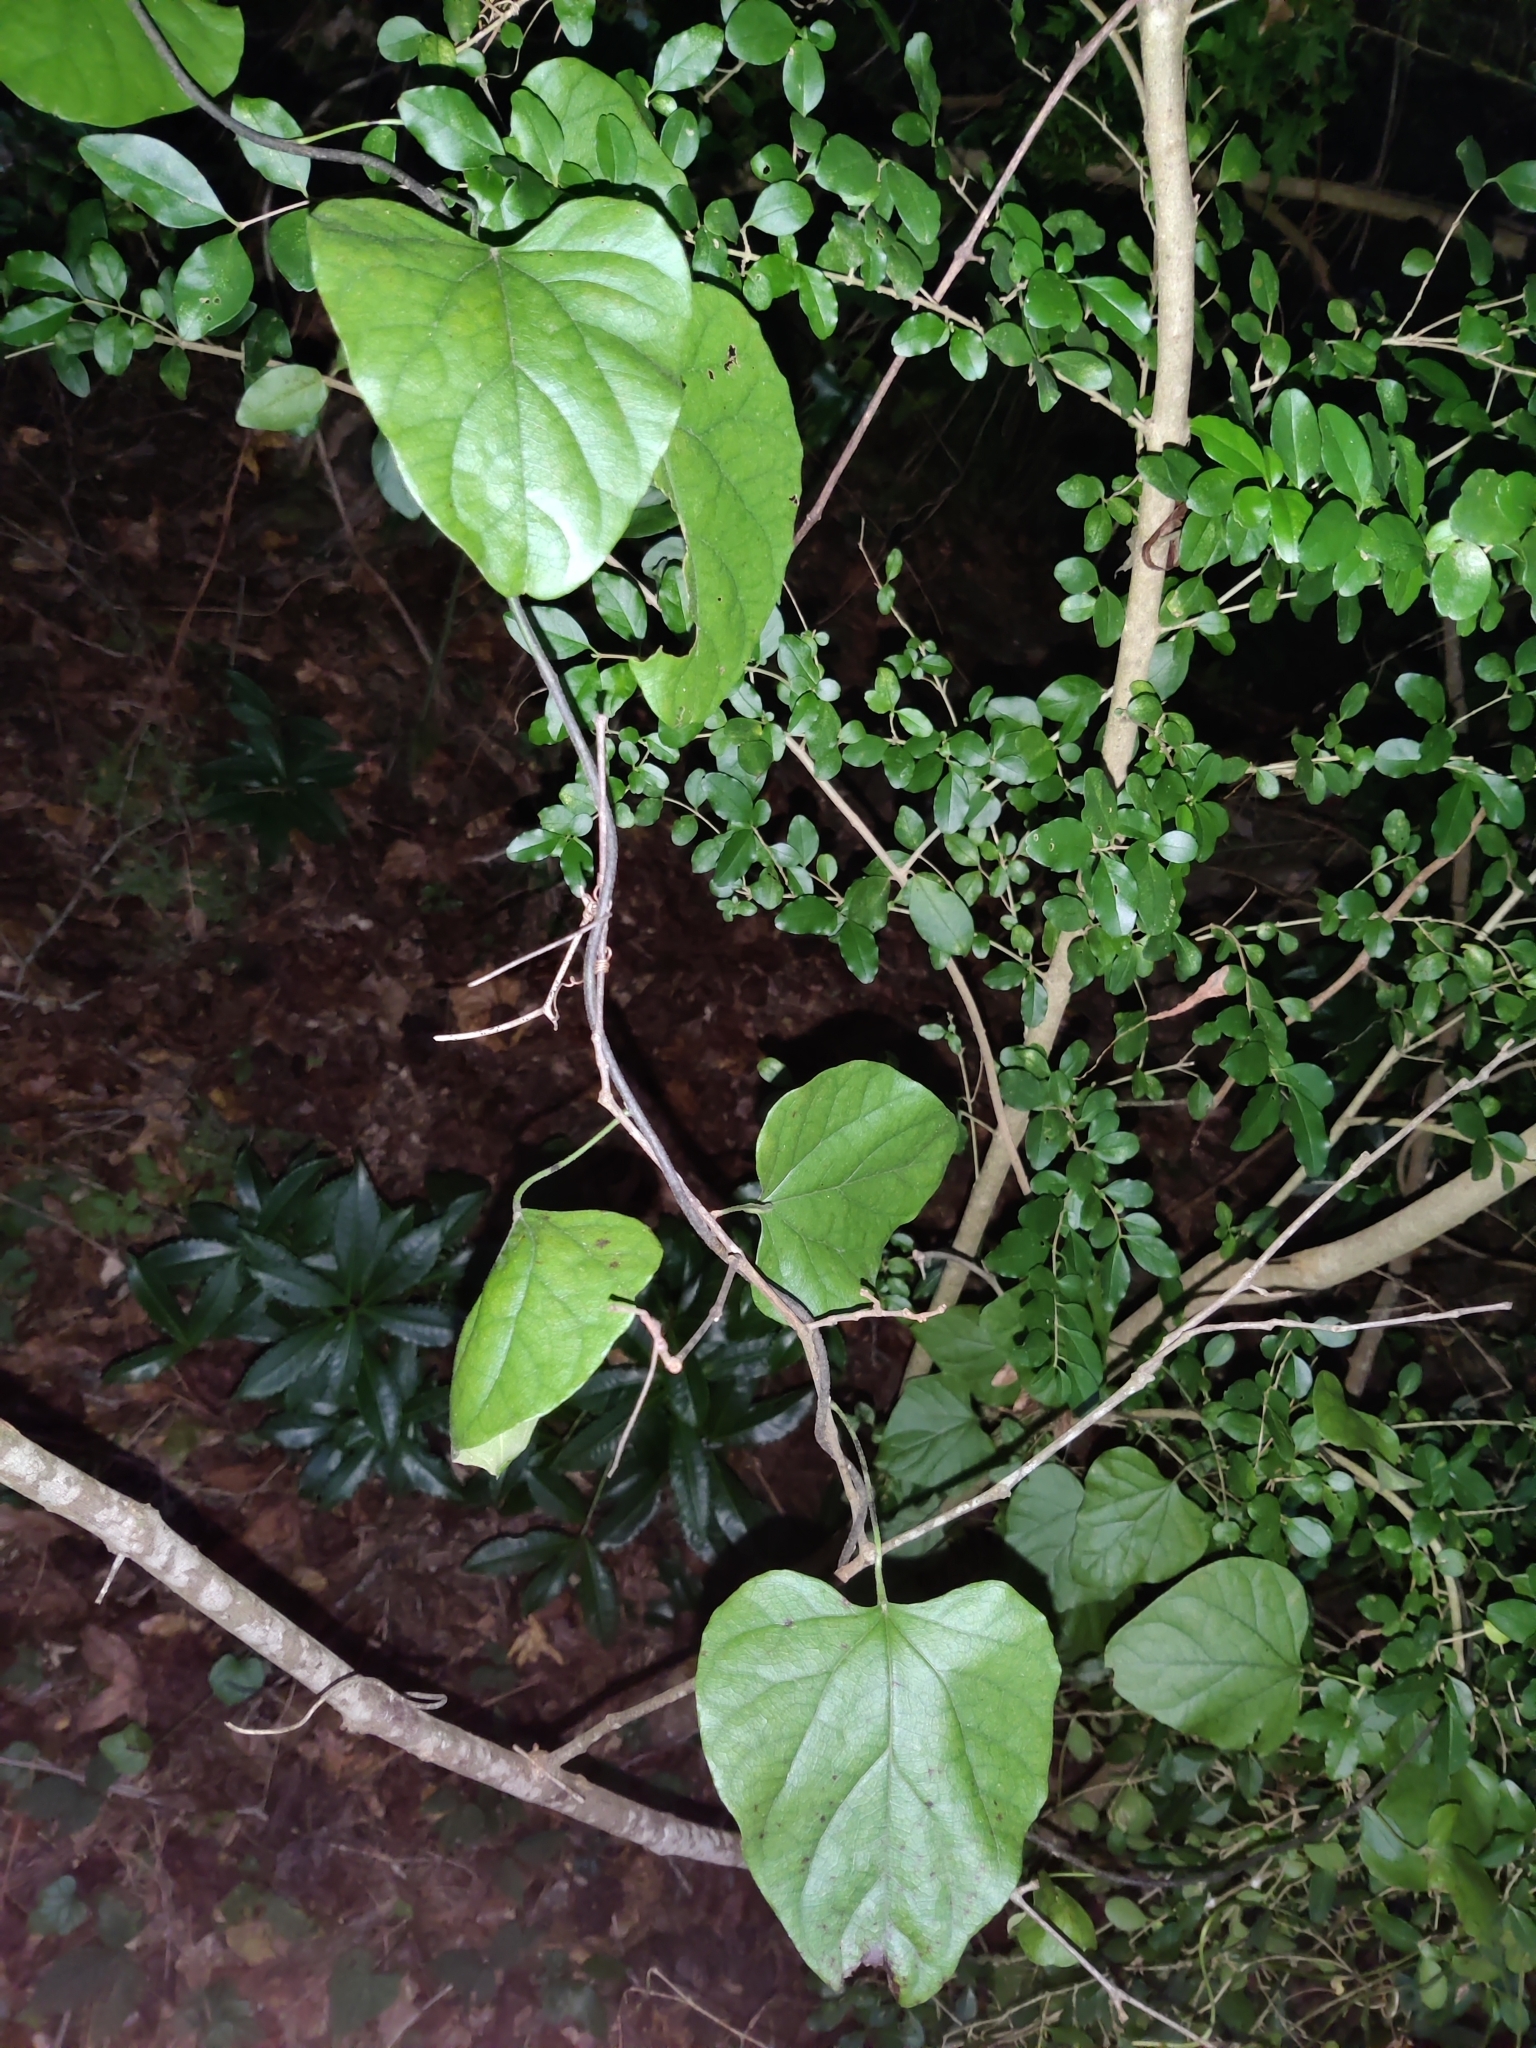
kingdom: Plantae
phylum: Tracheophyta
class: Magnoliopsida
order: Ranunculales
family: Menispermaceae
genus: Cocculus
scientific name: Cocculus carolinus
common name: Carolina moonseed
